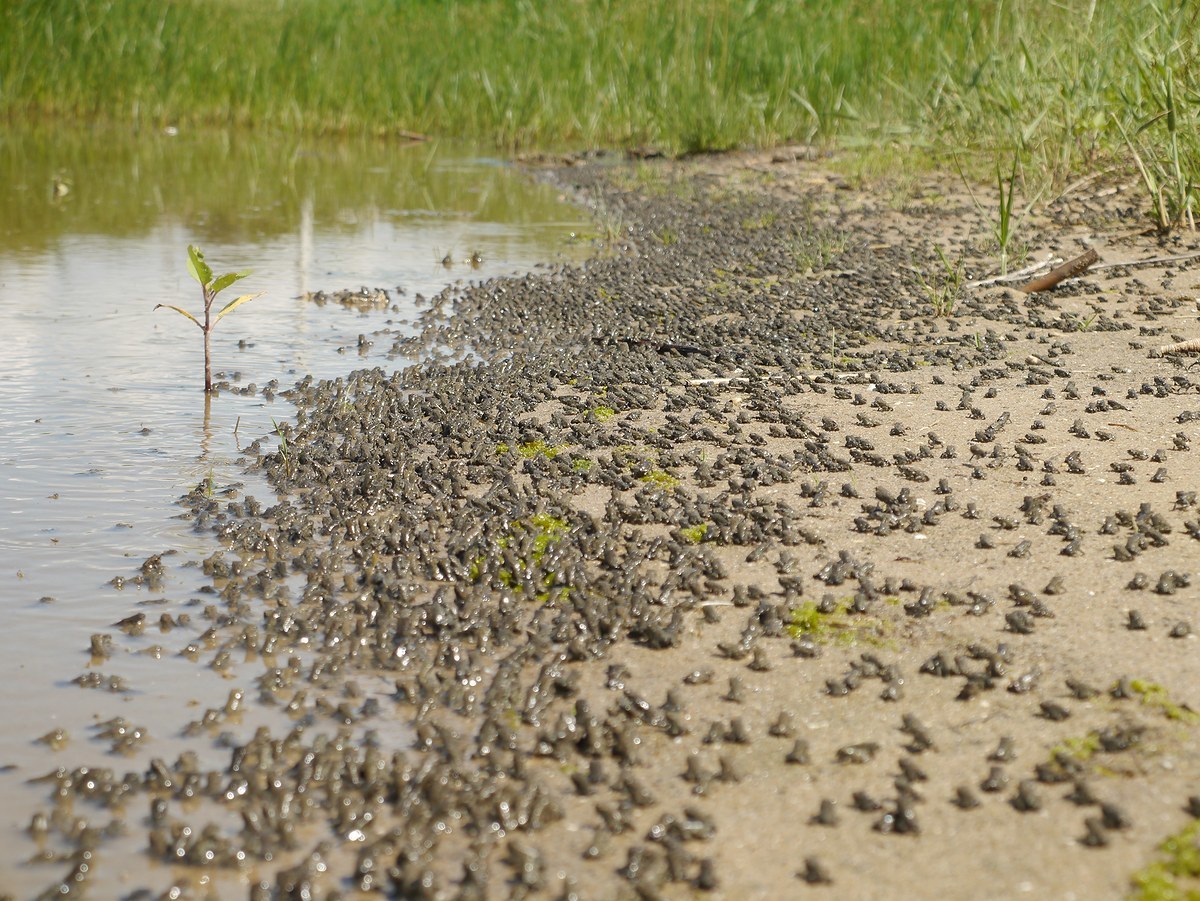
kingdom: Animalia
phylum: Chordata
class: Amphibia
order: Anura
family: Bufonidae
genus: Bufotes
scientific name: Bufotes viridis
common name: European green toad
